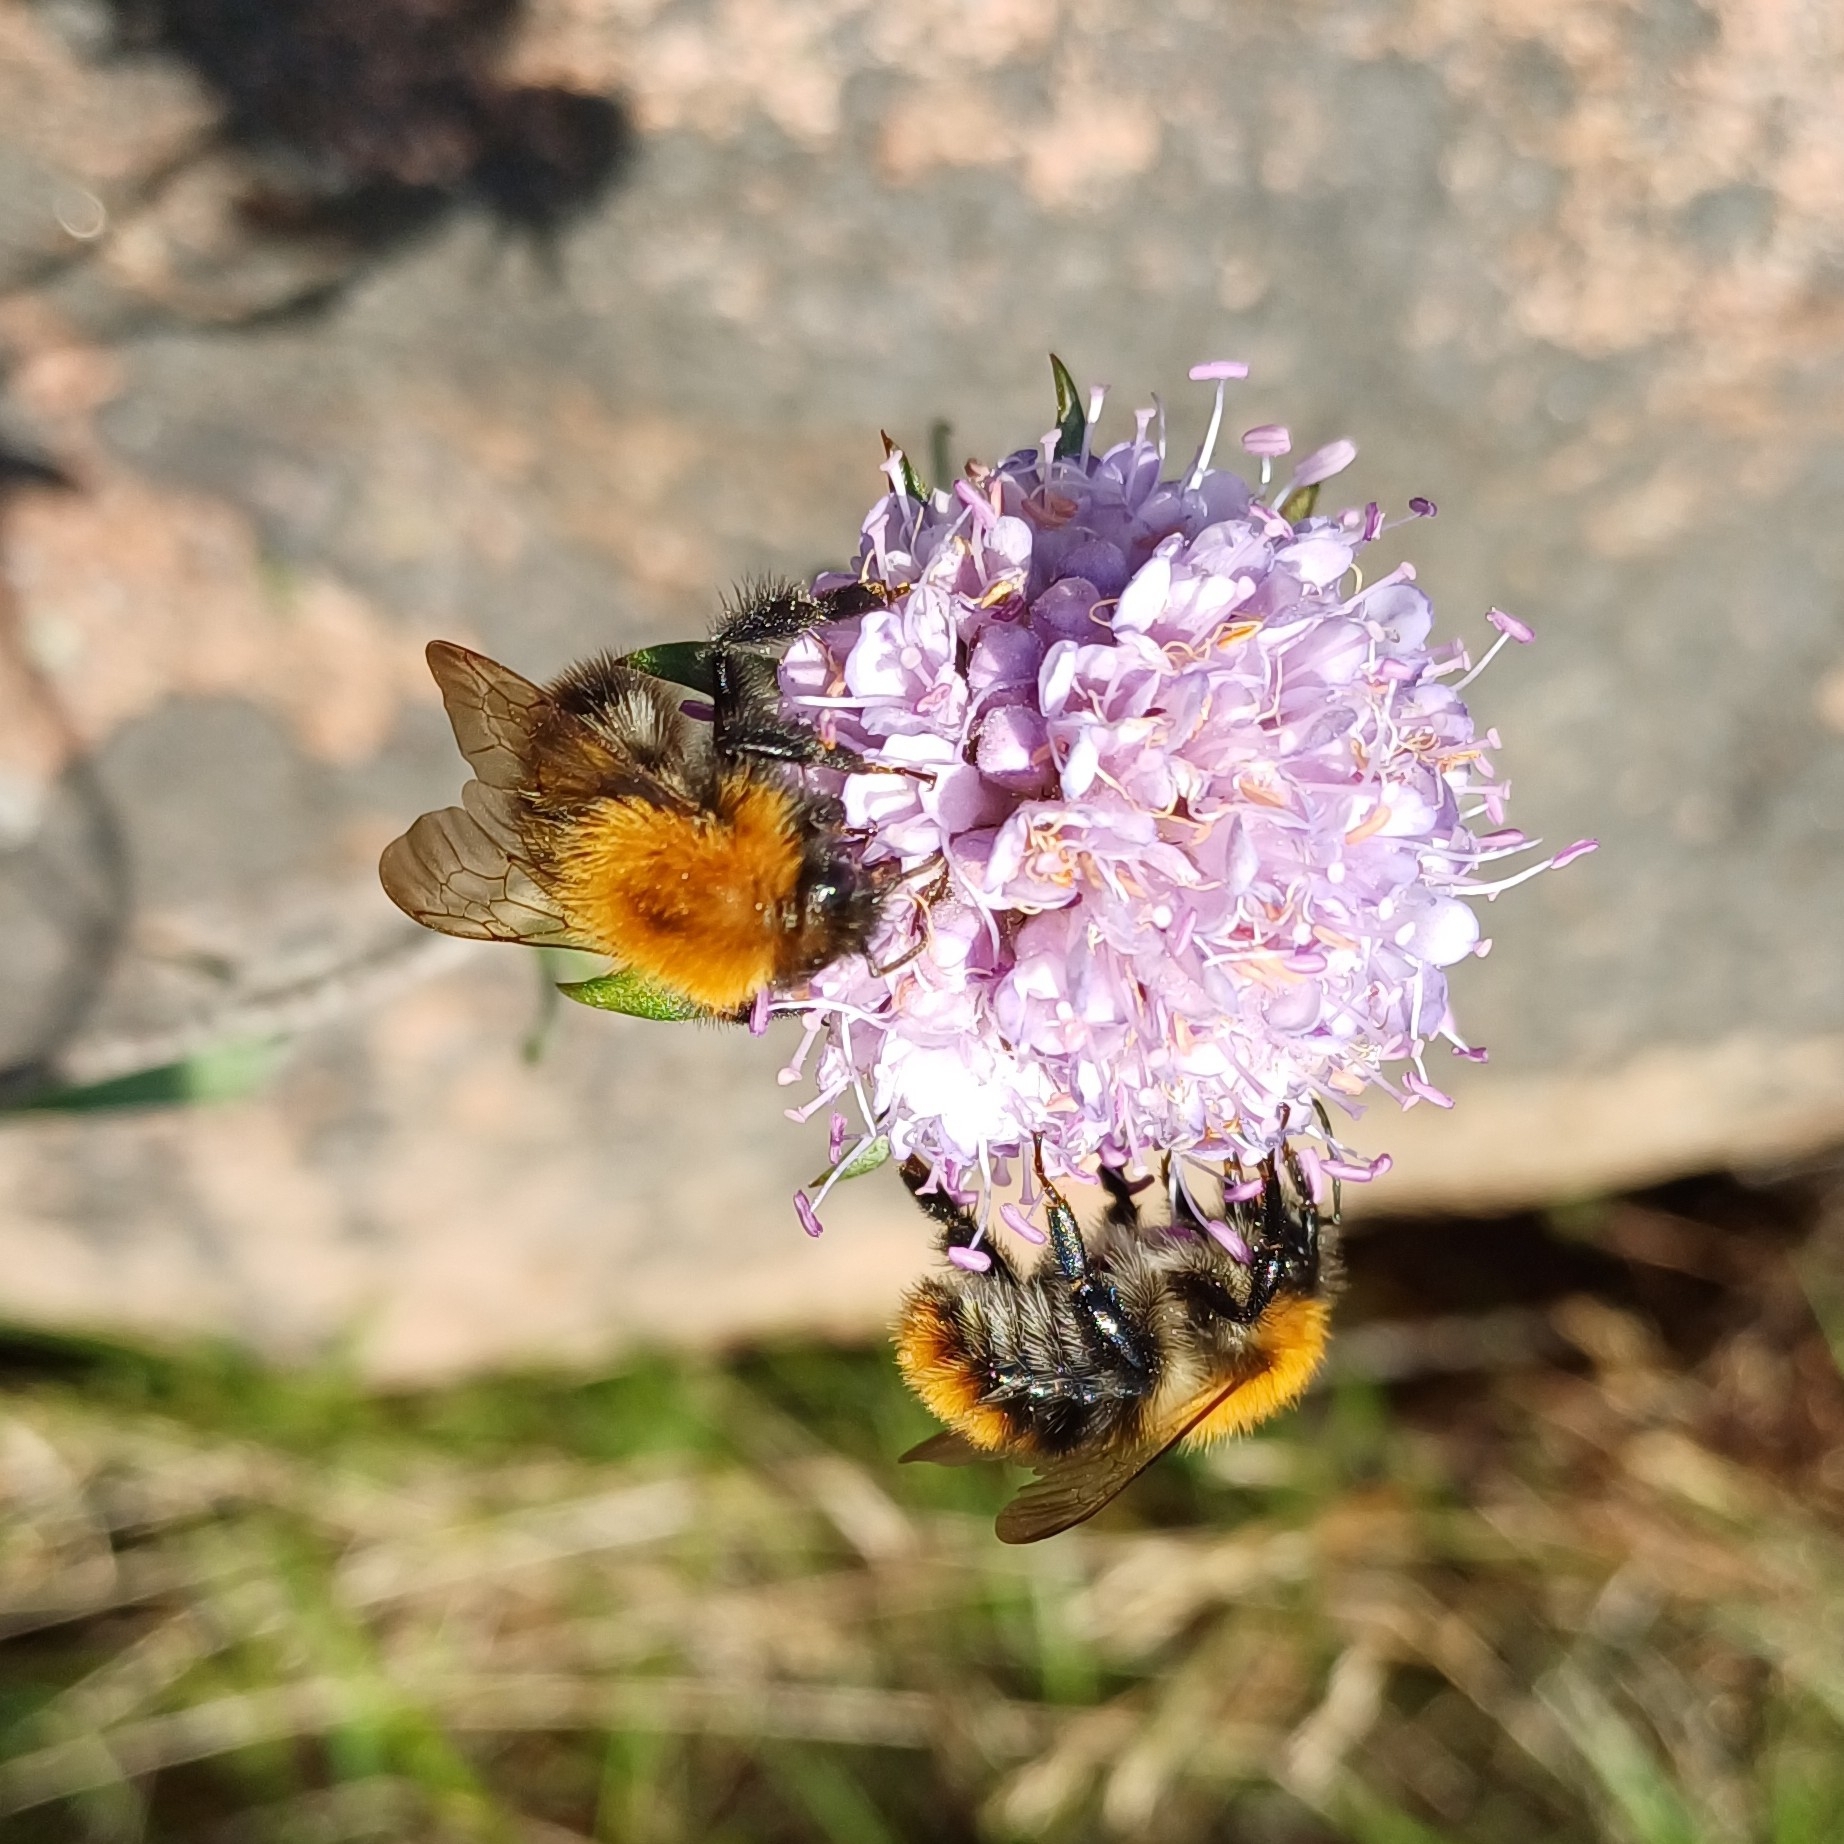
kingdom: Animalia
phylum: Arthropoda
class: Insecta
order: Hymenoptera
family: Apidae
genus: Bombus
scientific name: Bombus pascuorum
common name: Common carder bee
